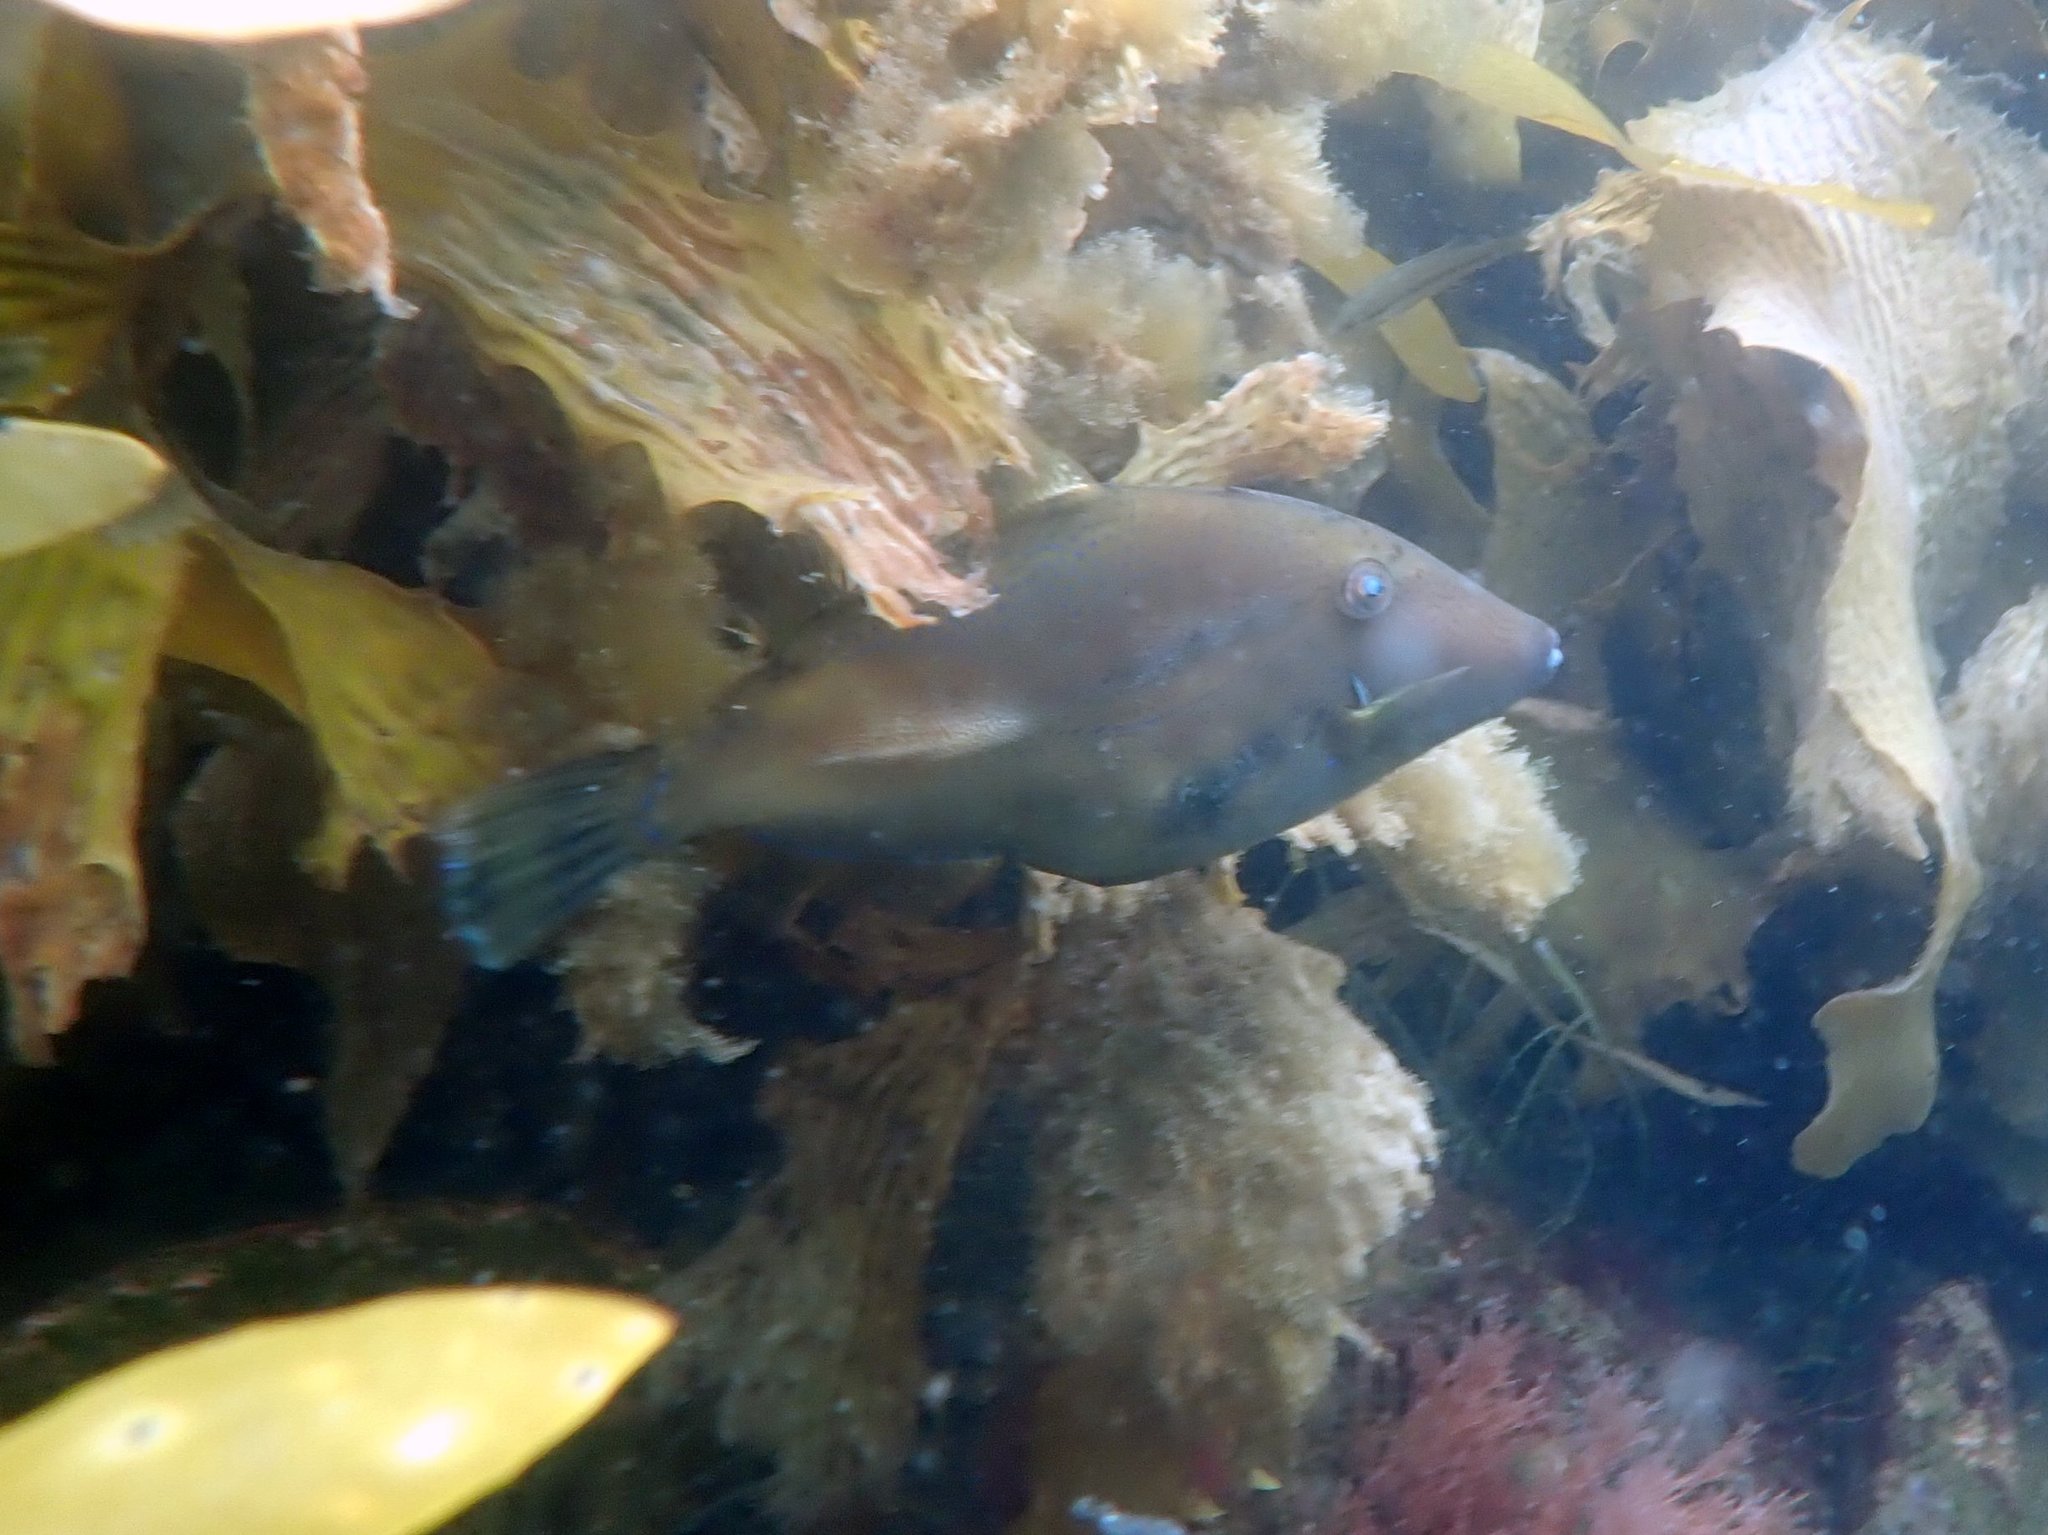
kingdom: Animalia
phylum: Chordata
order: Tetraodontiformes
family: Monacanthidae
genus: Acanthaluteres
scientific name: Acanthaluteres vittiger
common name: Brown leatherjacket
